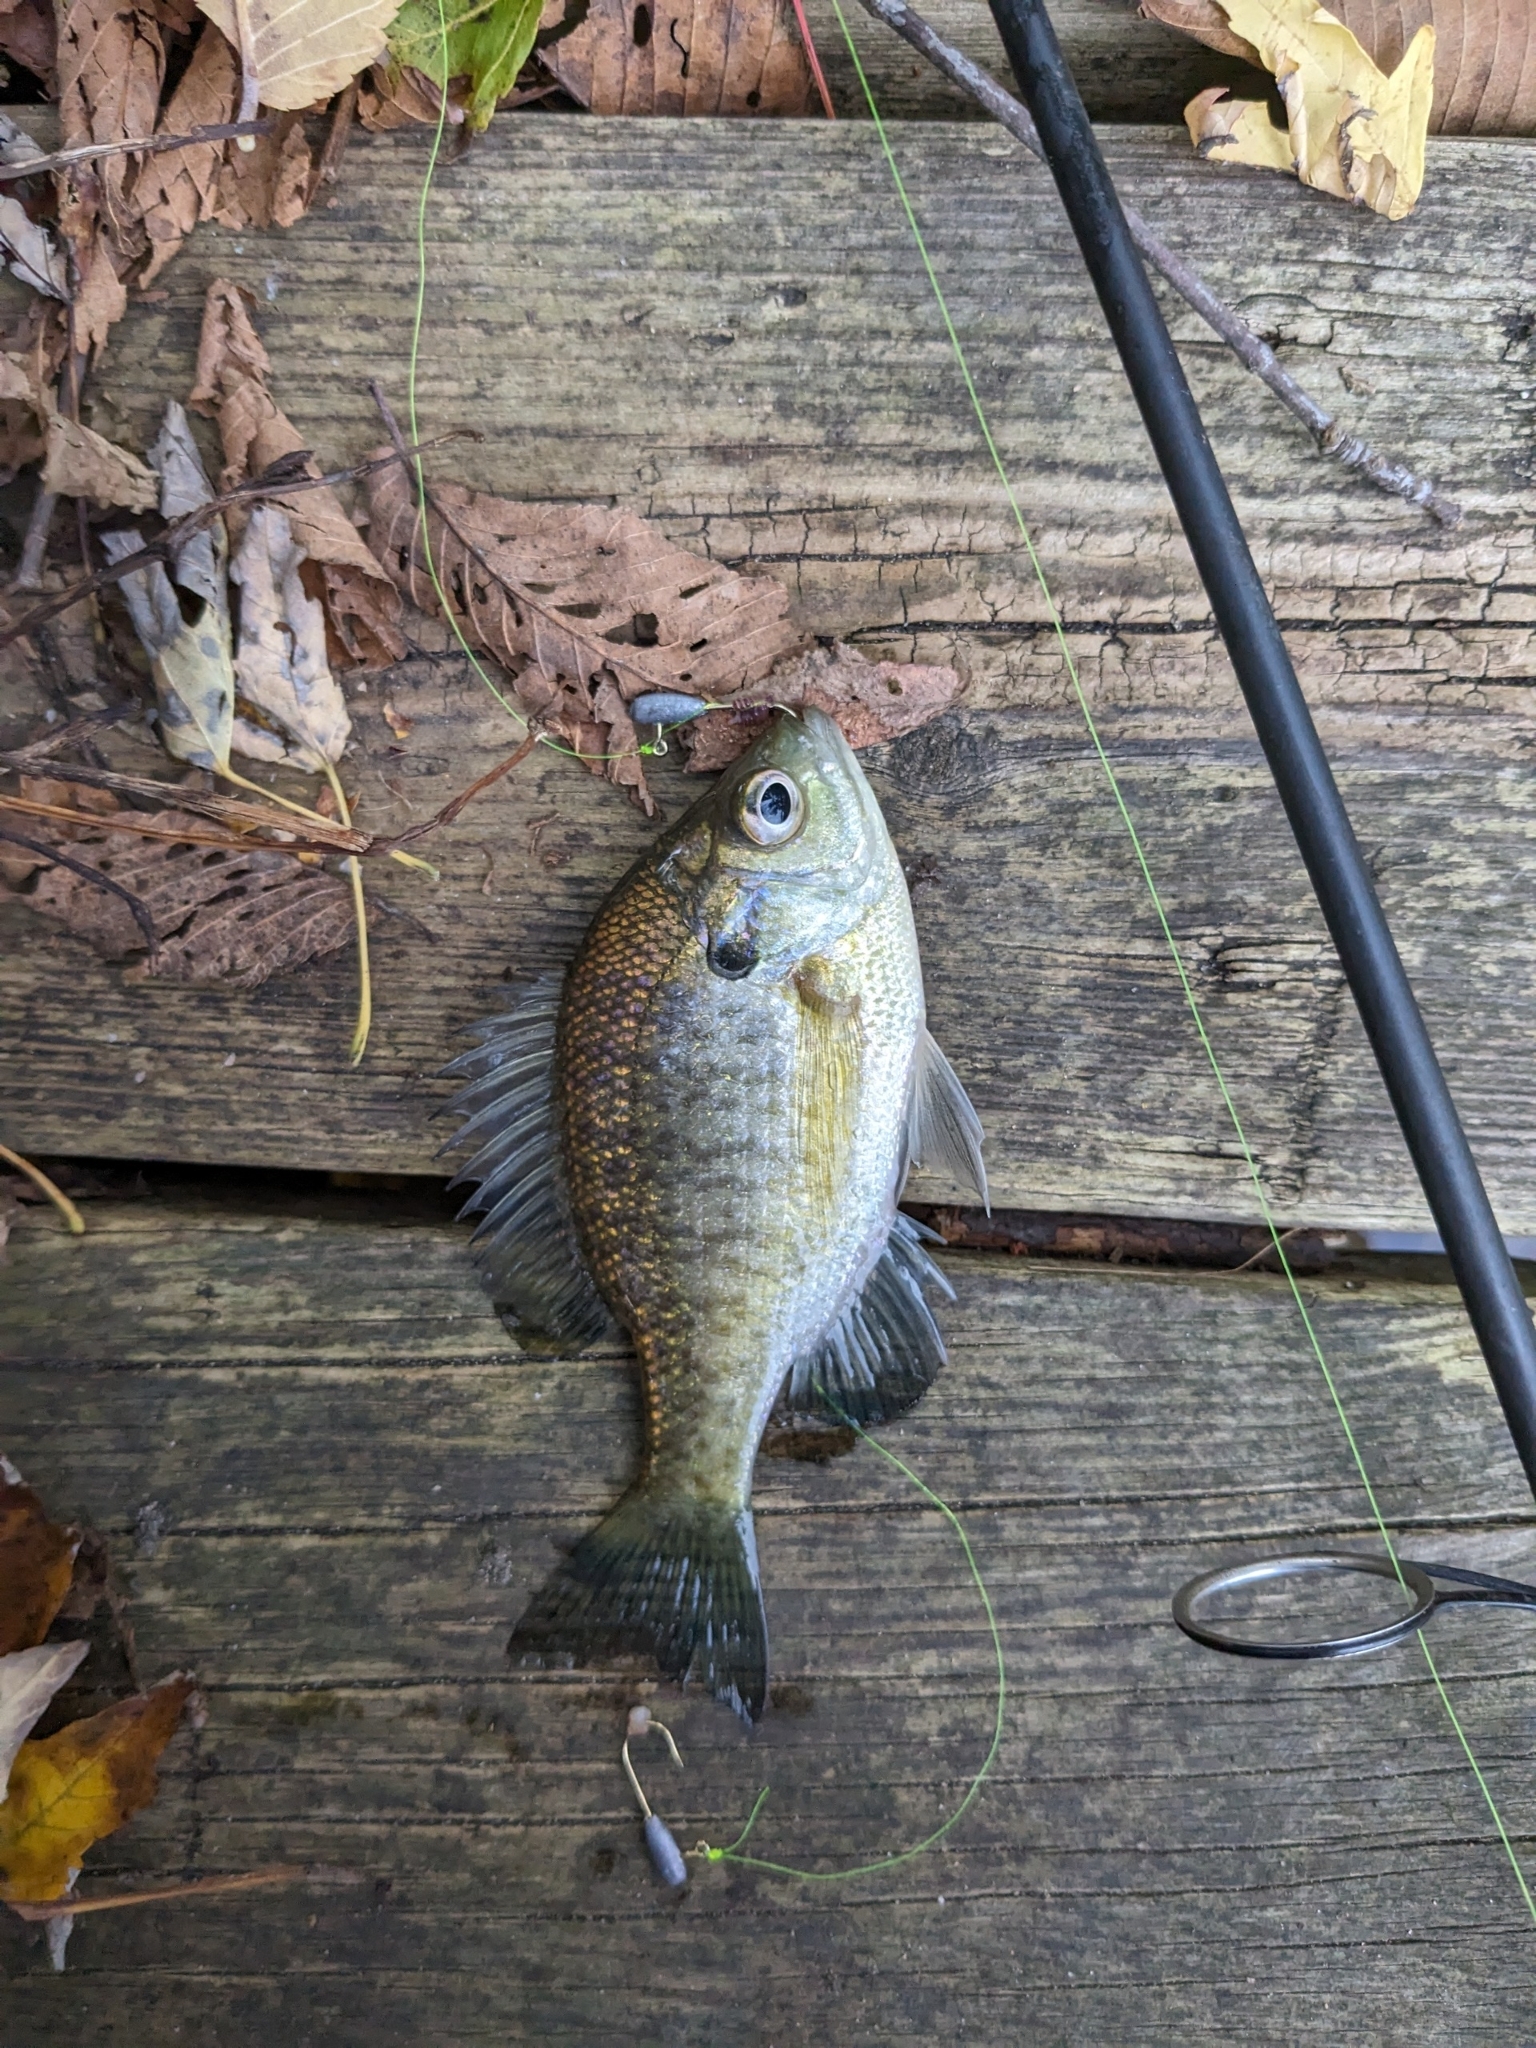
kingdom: Animalia
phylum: Chordata
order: Perciformes
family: Centrarchidae
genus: Lepomis
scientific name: Lepomis macrochirus
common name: Bluegill
